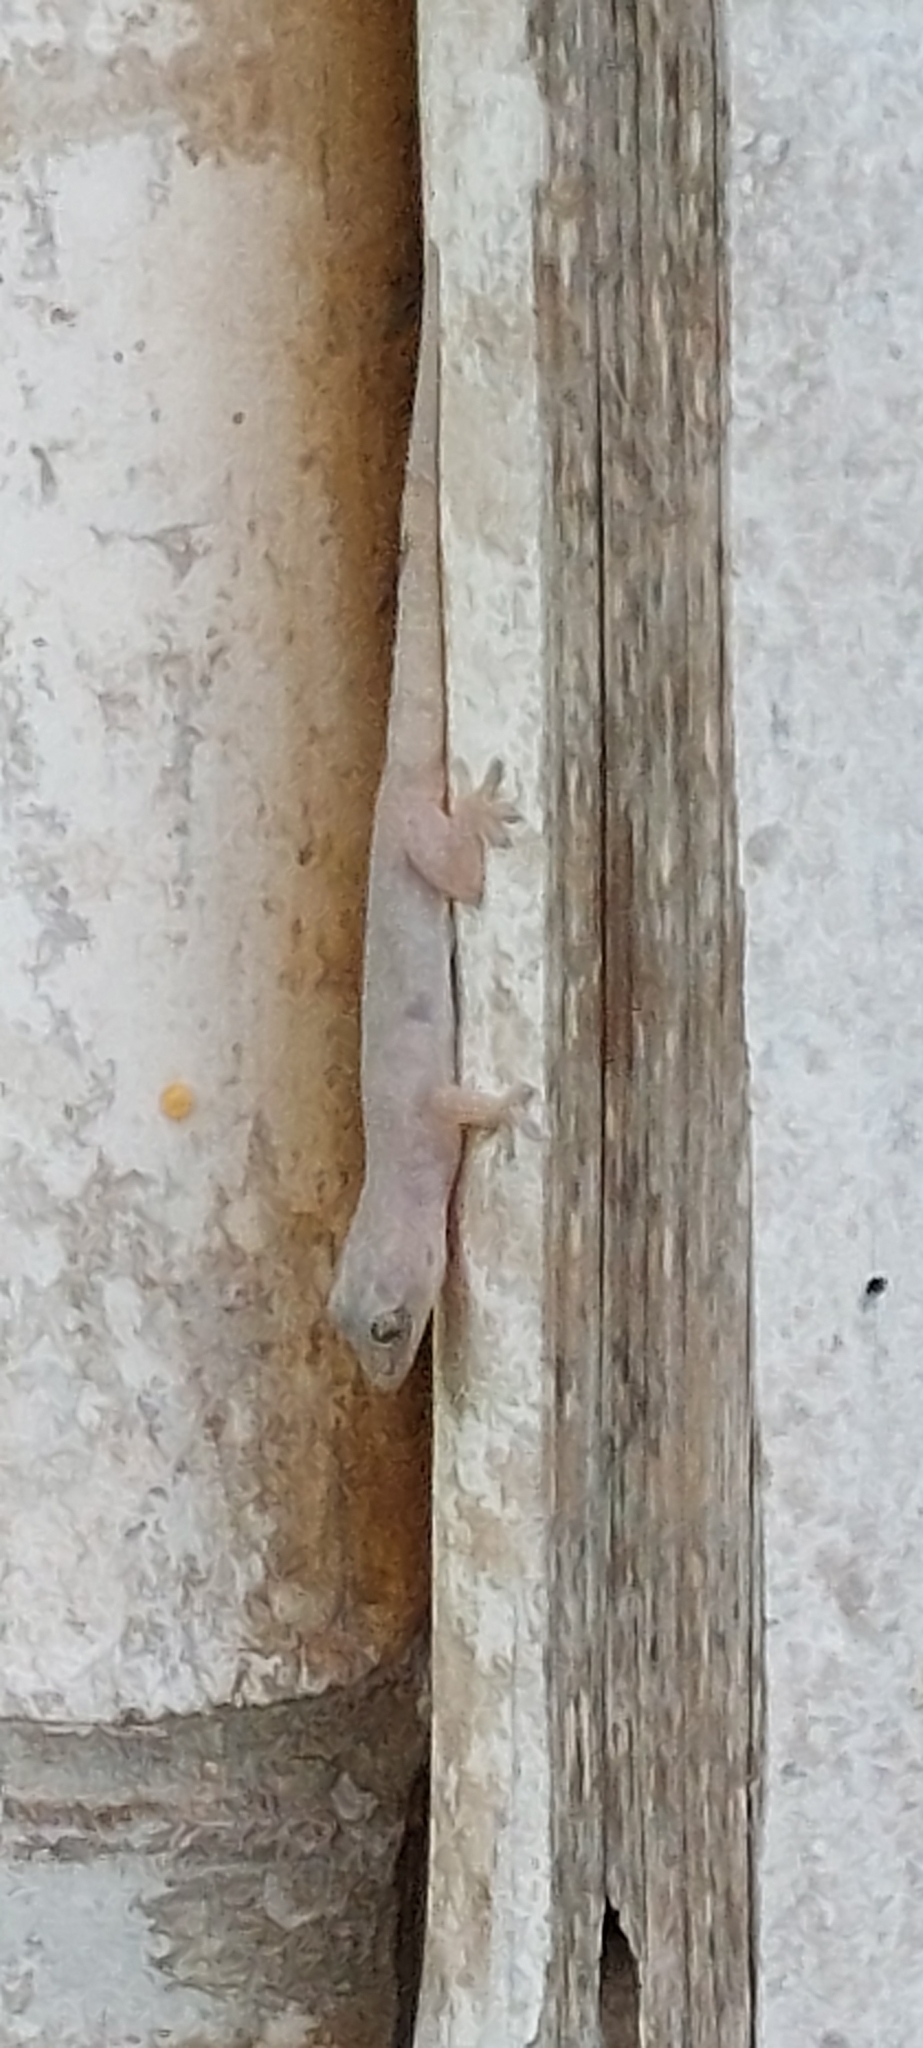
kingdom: Animalia
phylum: Chordata
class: Squamata
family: Gekkonidae
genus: Hemidactylus
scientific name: Hemidactylus frenatus
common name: Common house gecko
